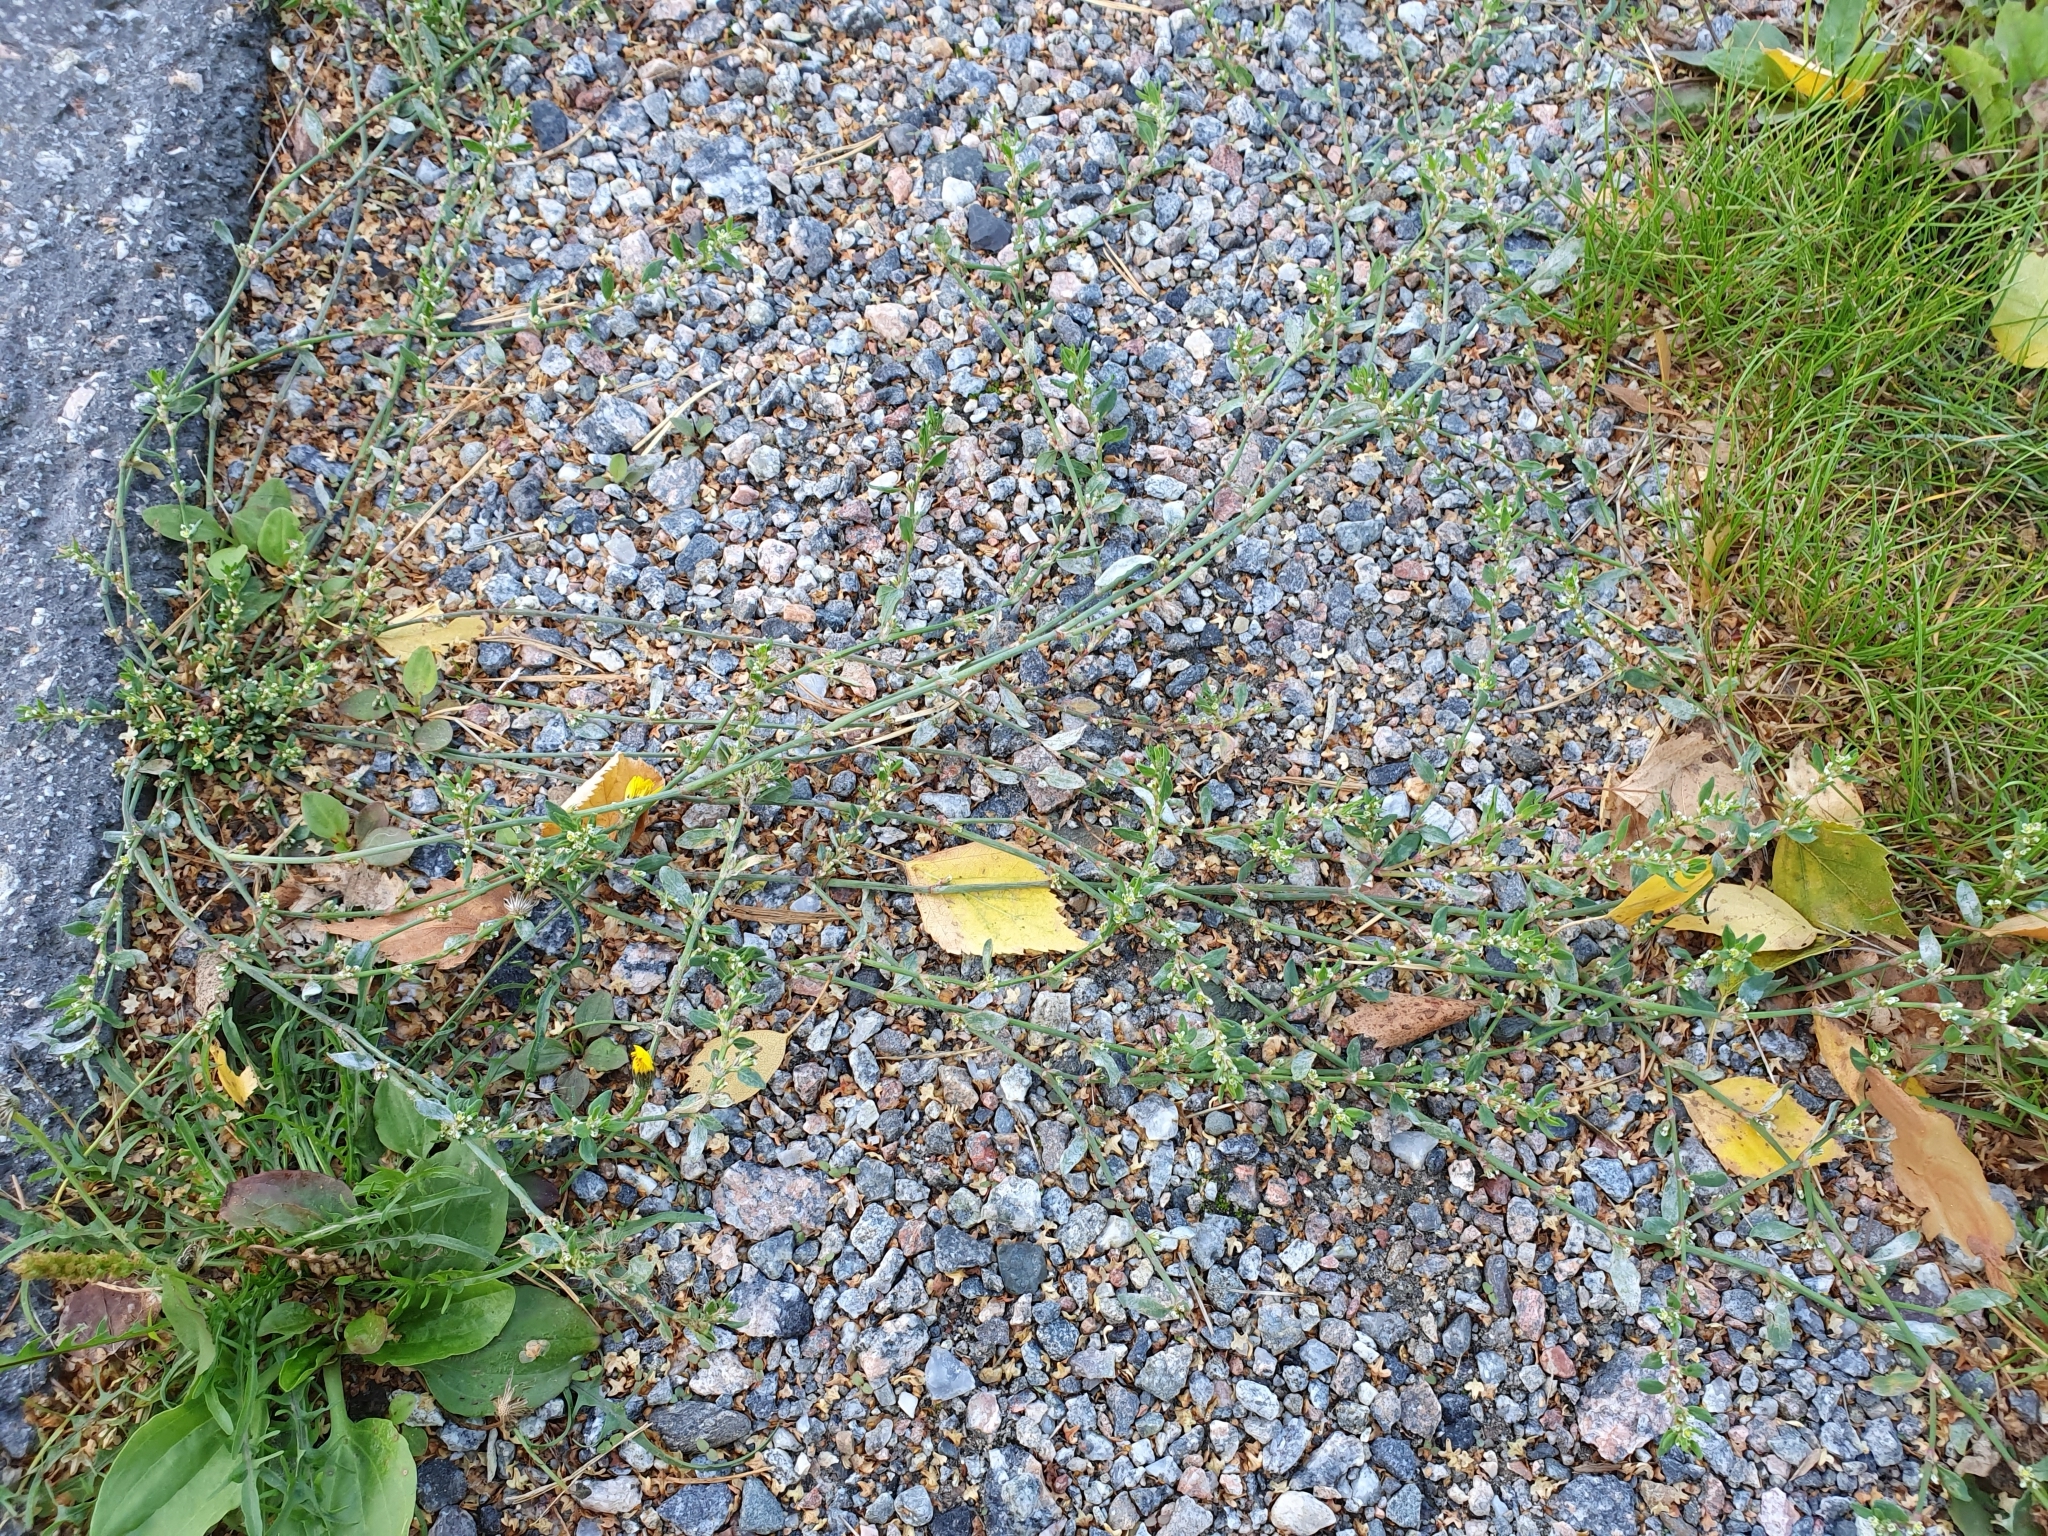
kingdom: Plantae
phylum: Tracheophyta
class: Magnoliopsida
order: Caryophyllales
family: Polygonaceae
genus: Polygonum
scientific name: Polygonum aviculare
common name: Prostrate knotweed
